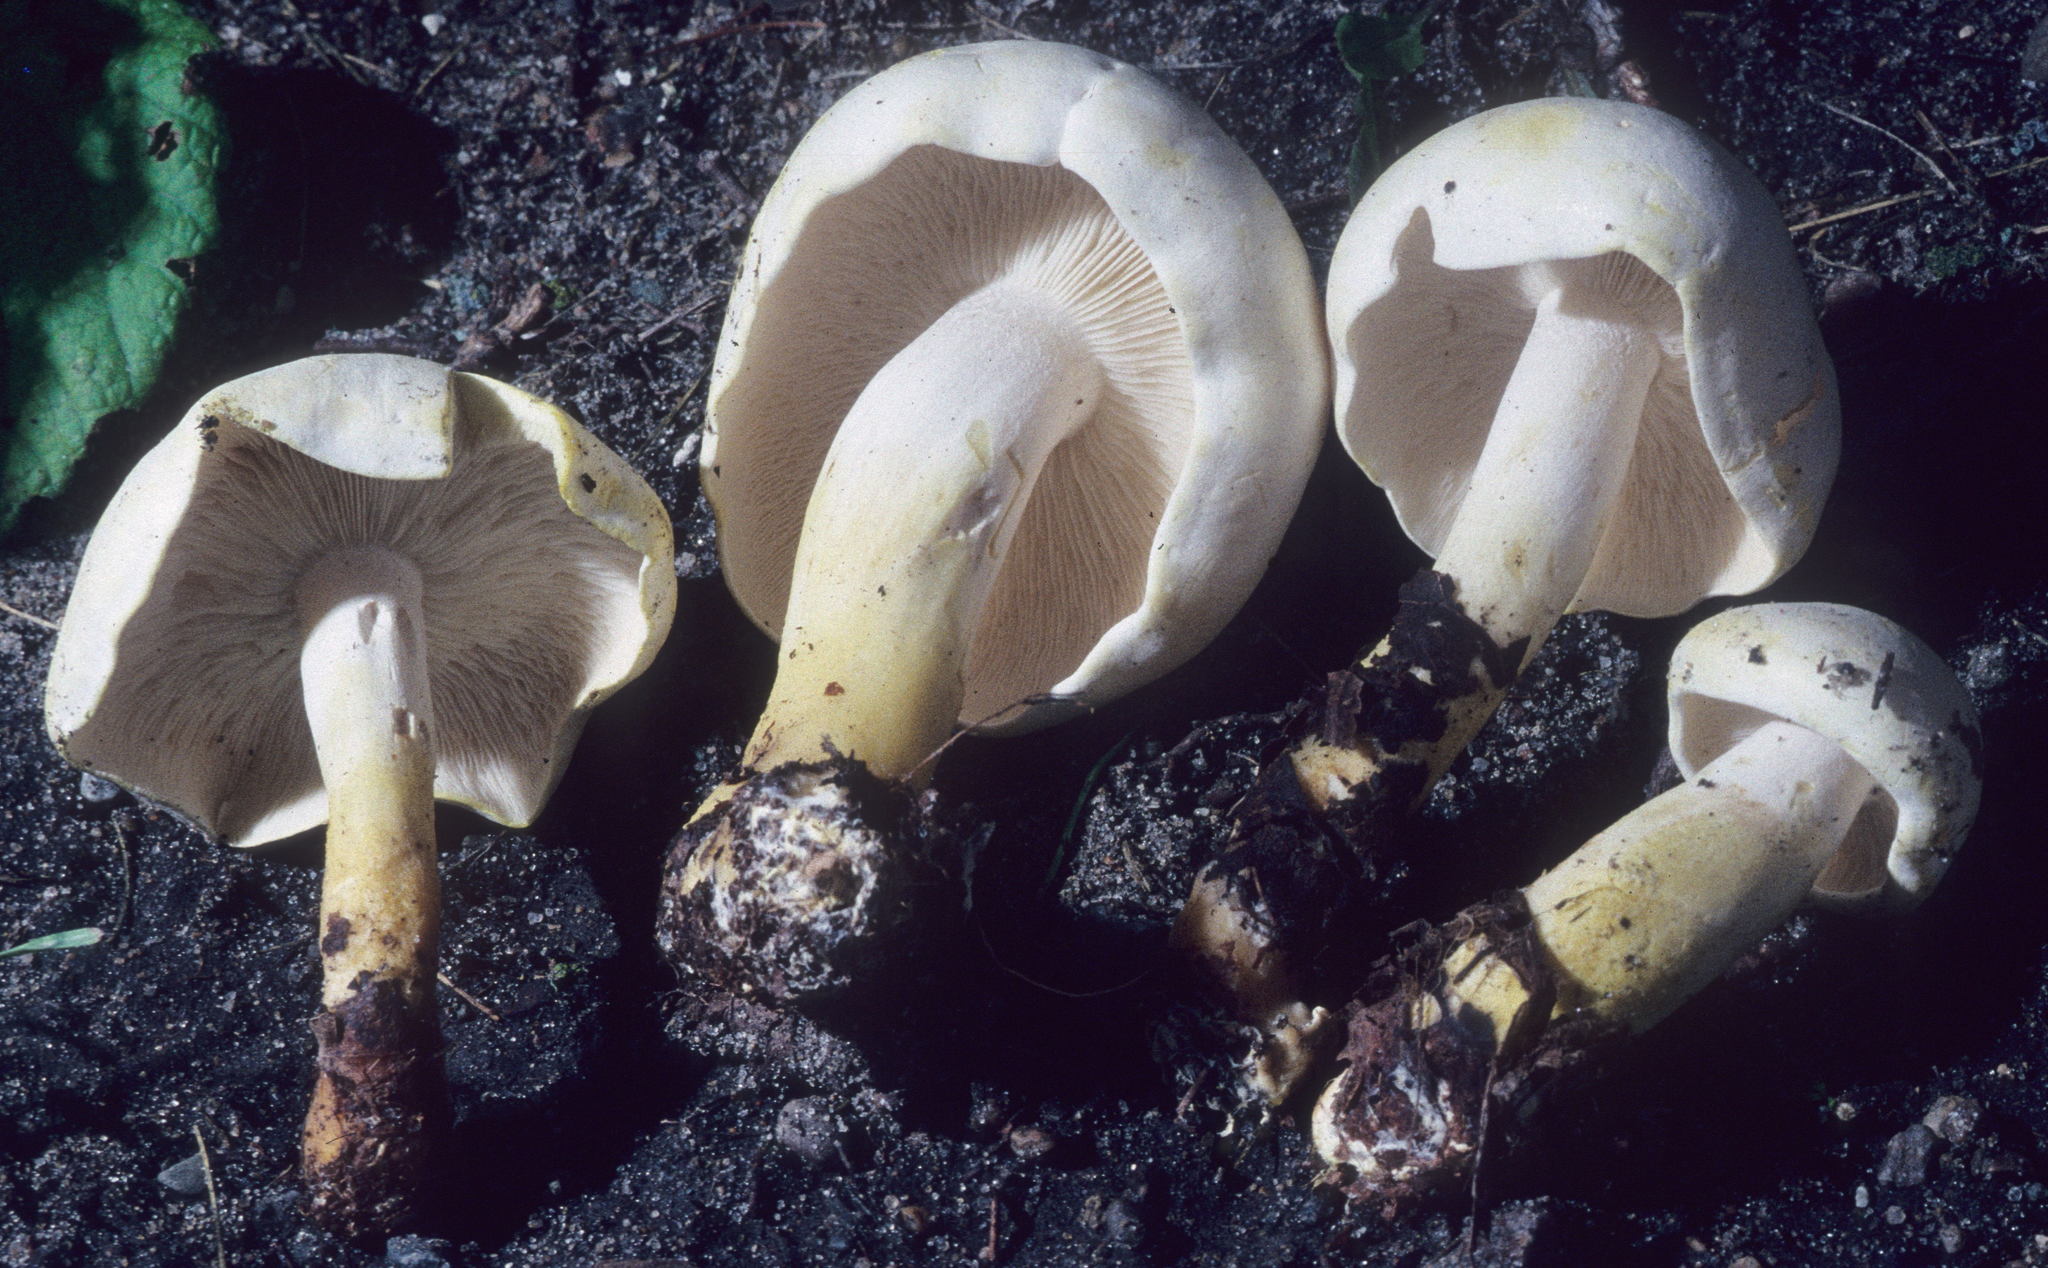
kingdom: Fungi
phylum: Basidiomycota
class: Agaricomycetes
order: Agaricales
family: Tricholomataceae
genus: Tricholoma
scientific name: Tricholoma sulphurescens
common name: Yellow staining knight
